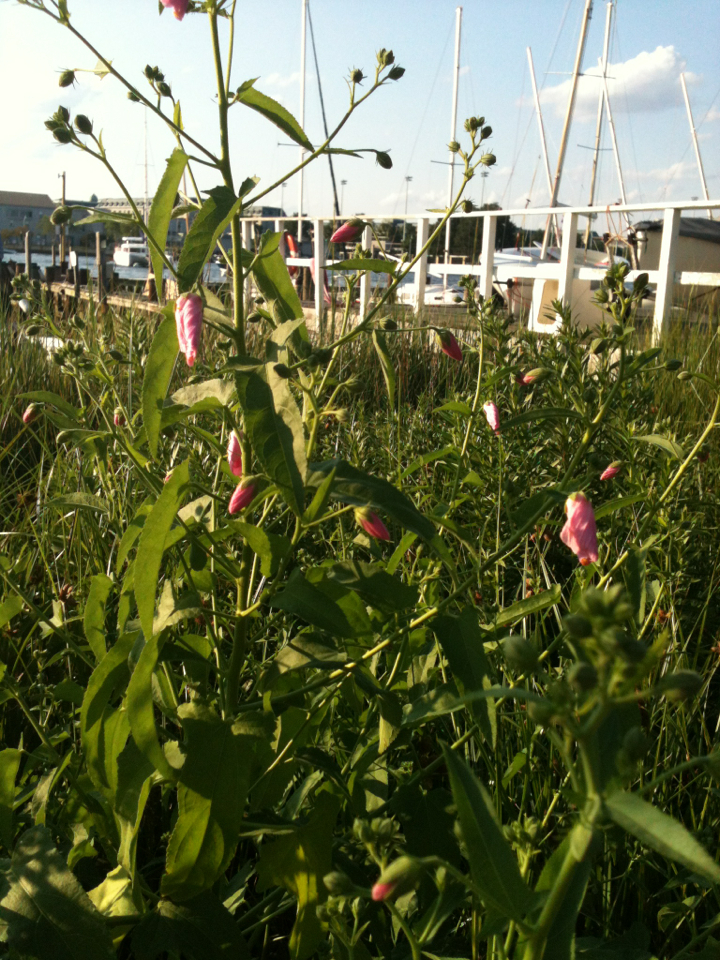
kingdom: Plantae
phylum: Tracheophyta
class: Magnoliopsida
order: Malvales
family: Malvaceae
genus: Kosteletzkya
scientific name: Kosteletzkya pentacarpos
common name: Virginia saltmarsh mallow
